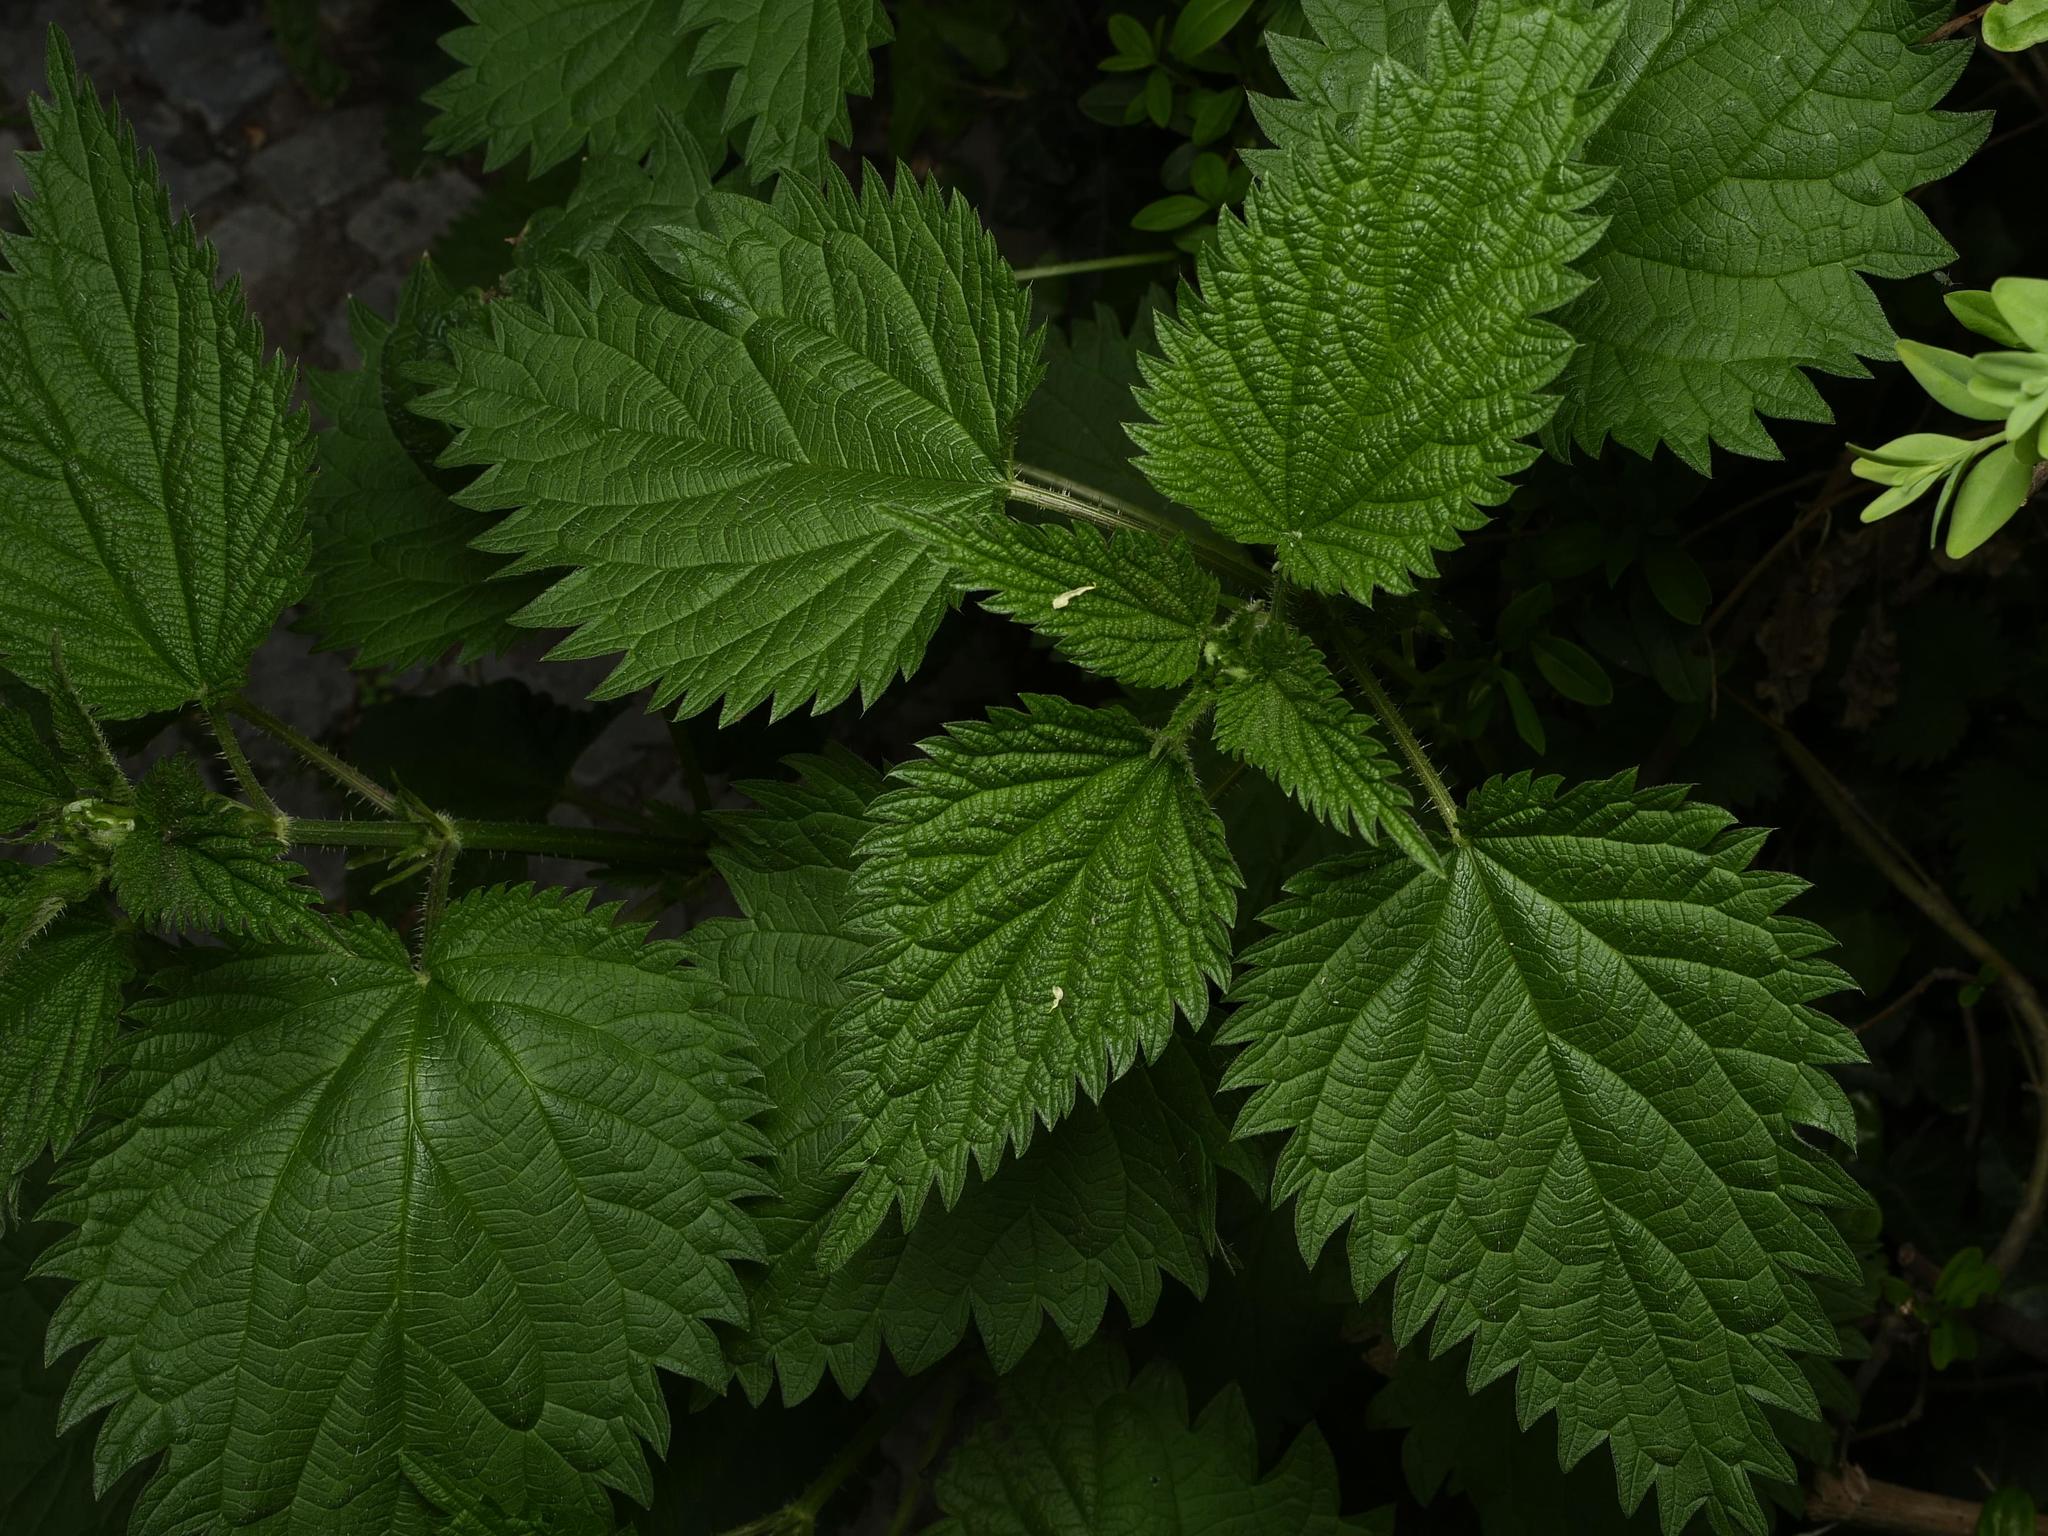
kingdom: Plantae
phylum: Tracheophyta
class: Magnoliopsida
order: Rosales
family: Urticaceae
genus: Urtica
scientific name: Urtica dioica
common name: Common nettle
